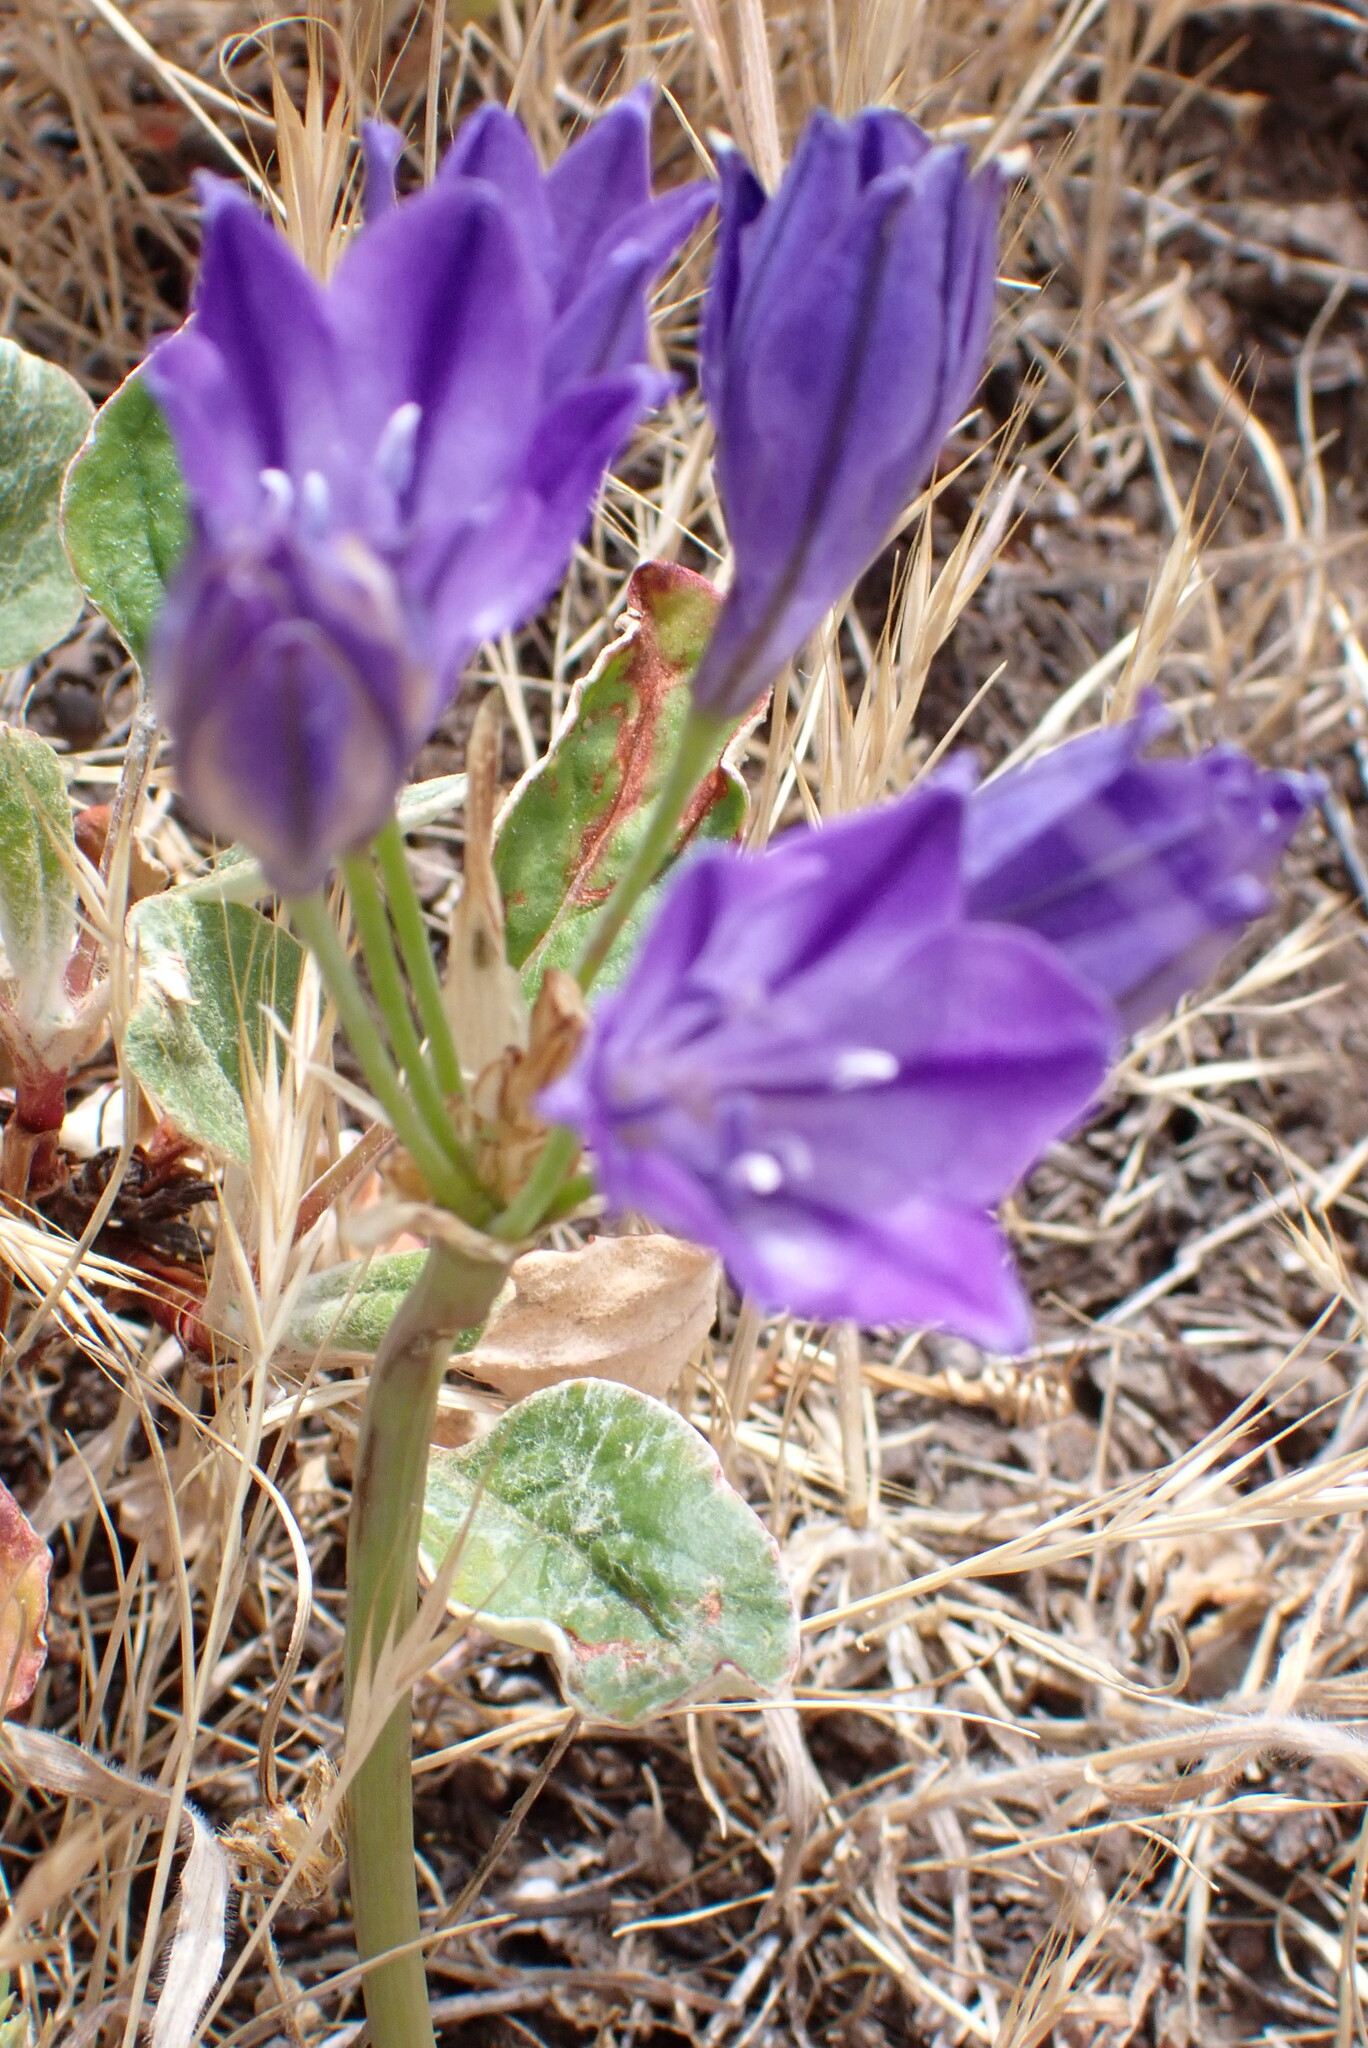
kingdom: Plantae
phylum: Tracheophyta
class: Liliopsida
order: Asparagales
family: Asparagaceae
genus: Triteleia
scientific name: Triteleia laxa
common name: Triplet-lily
